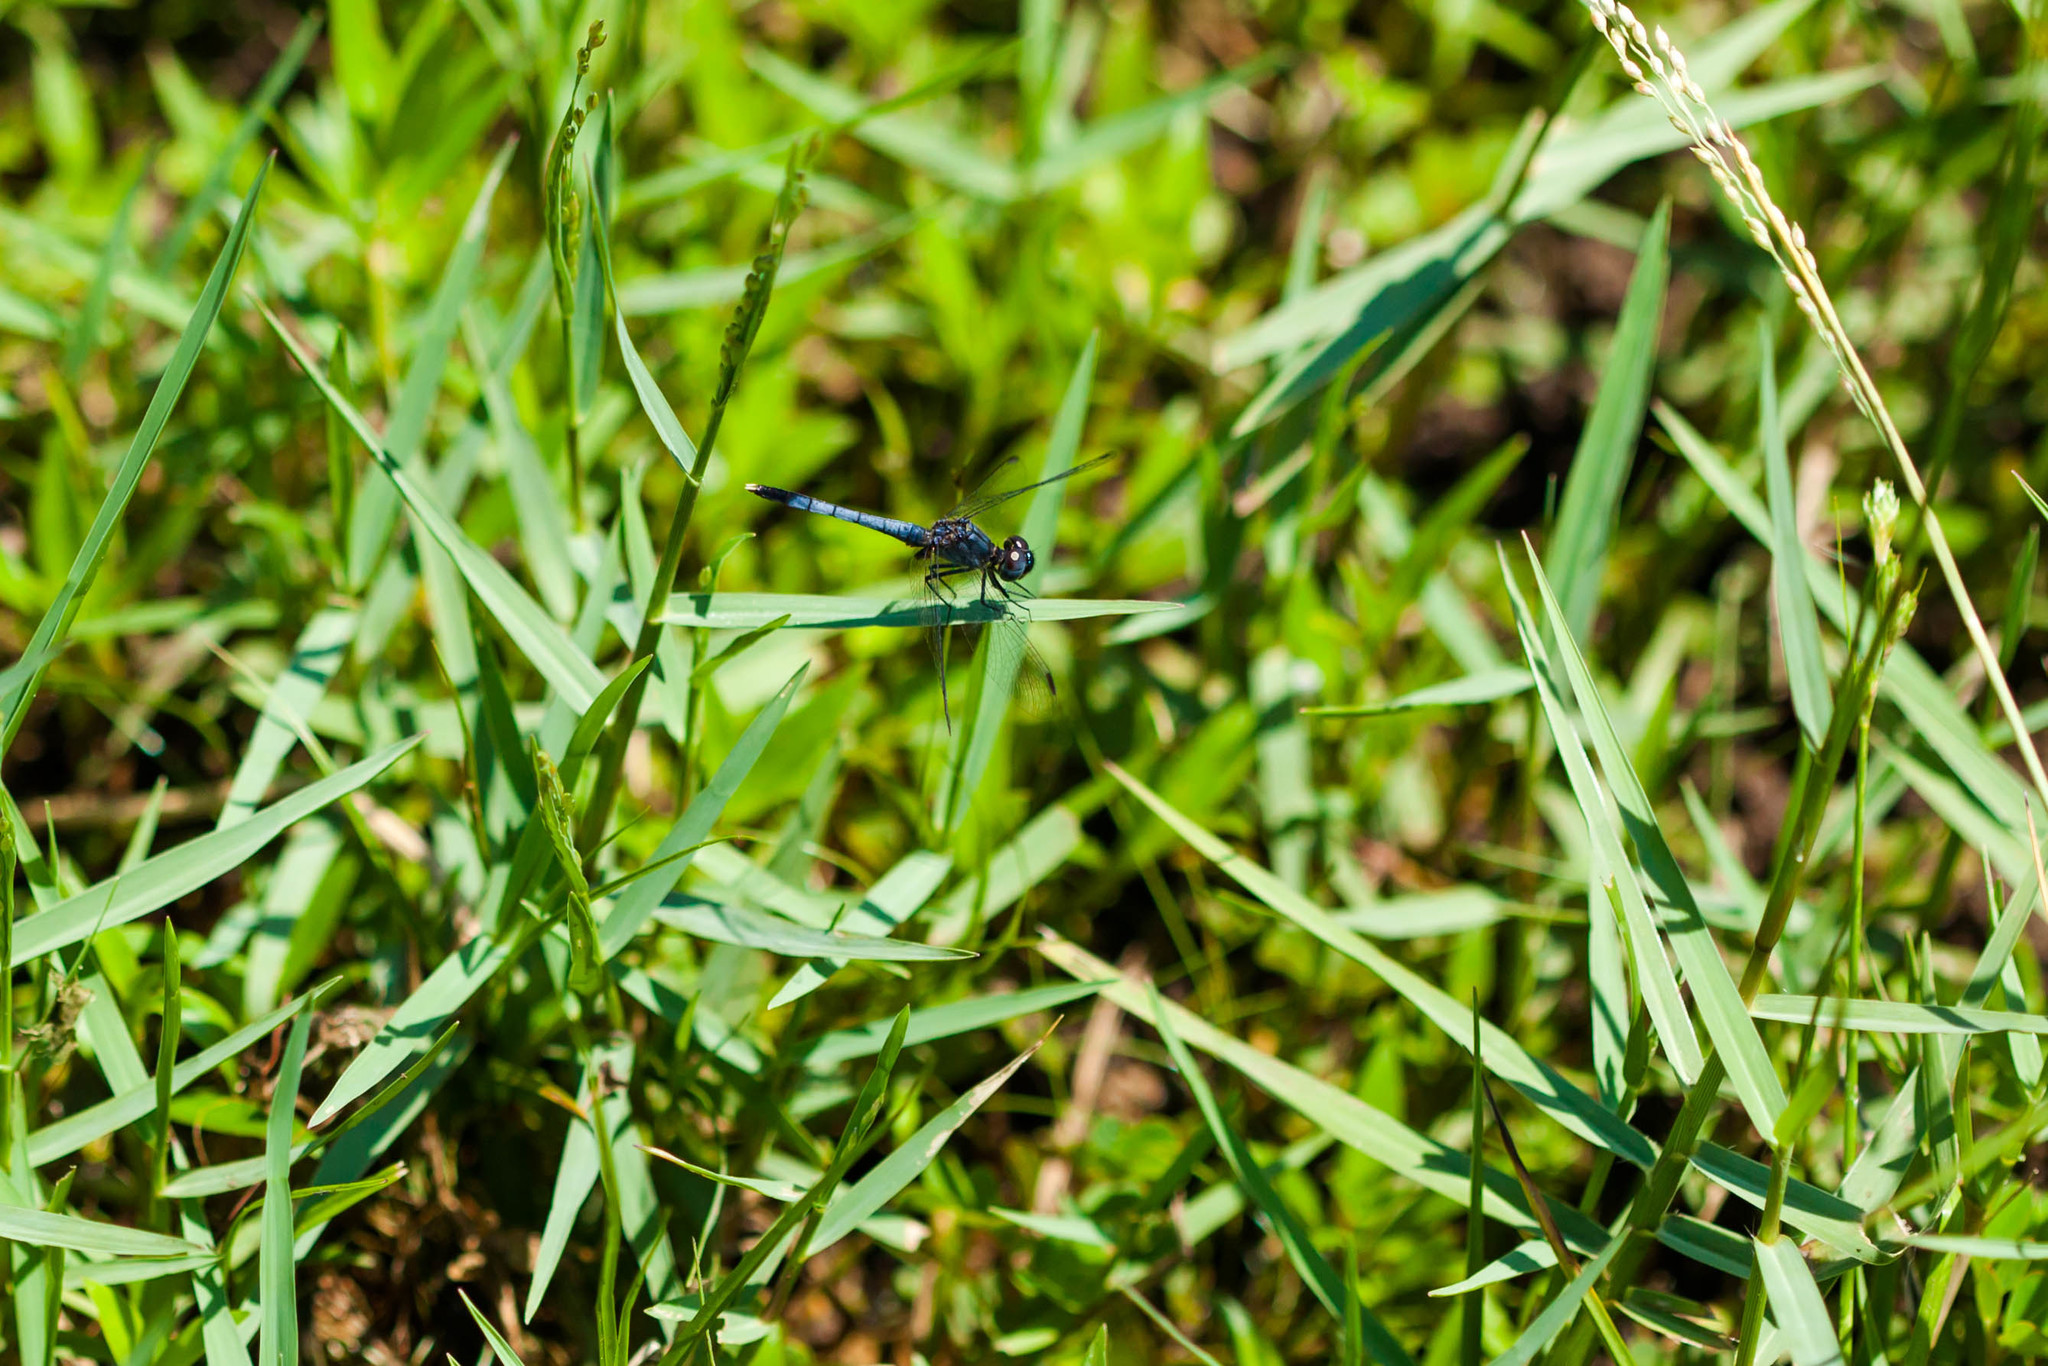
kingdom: Animalia
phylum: Arthropoda
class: Insecta
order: Odonata
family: Libellulidae
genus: Erythrodiplax
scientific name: Erythrodiplax minuscula
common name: Little blue dragonlet
